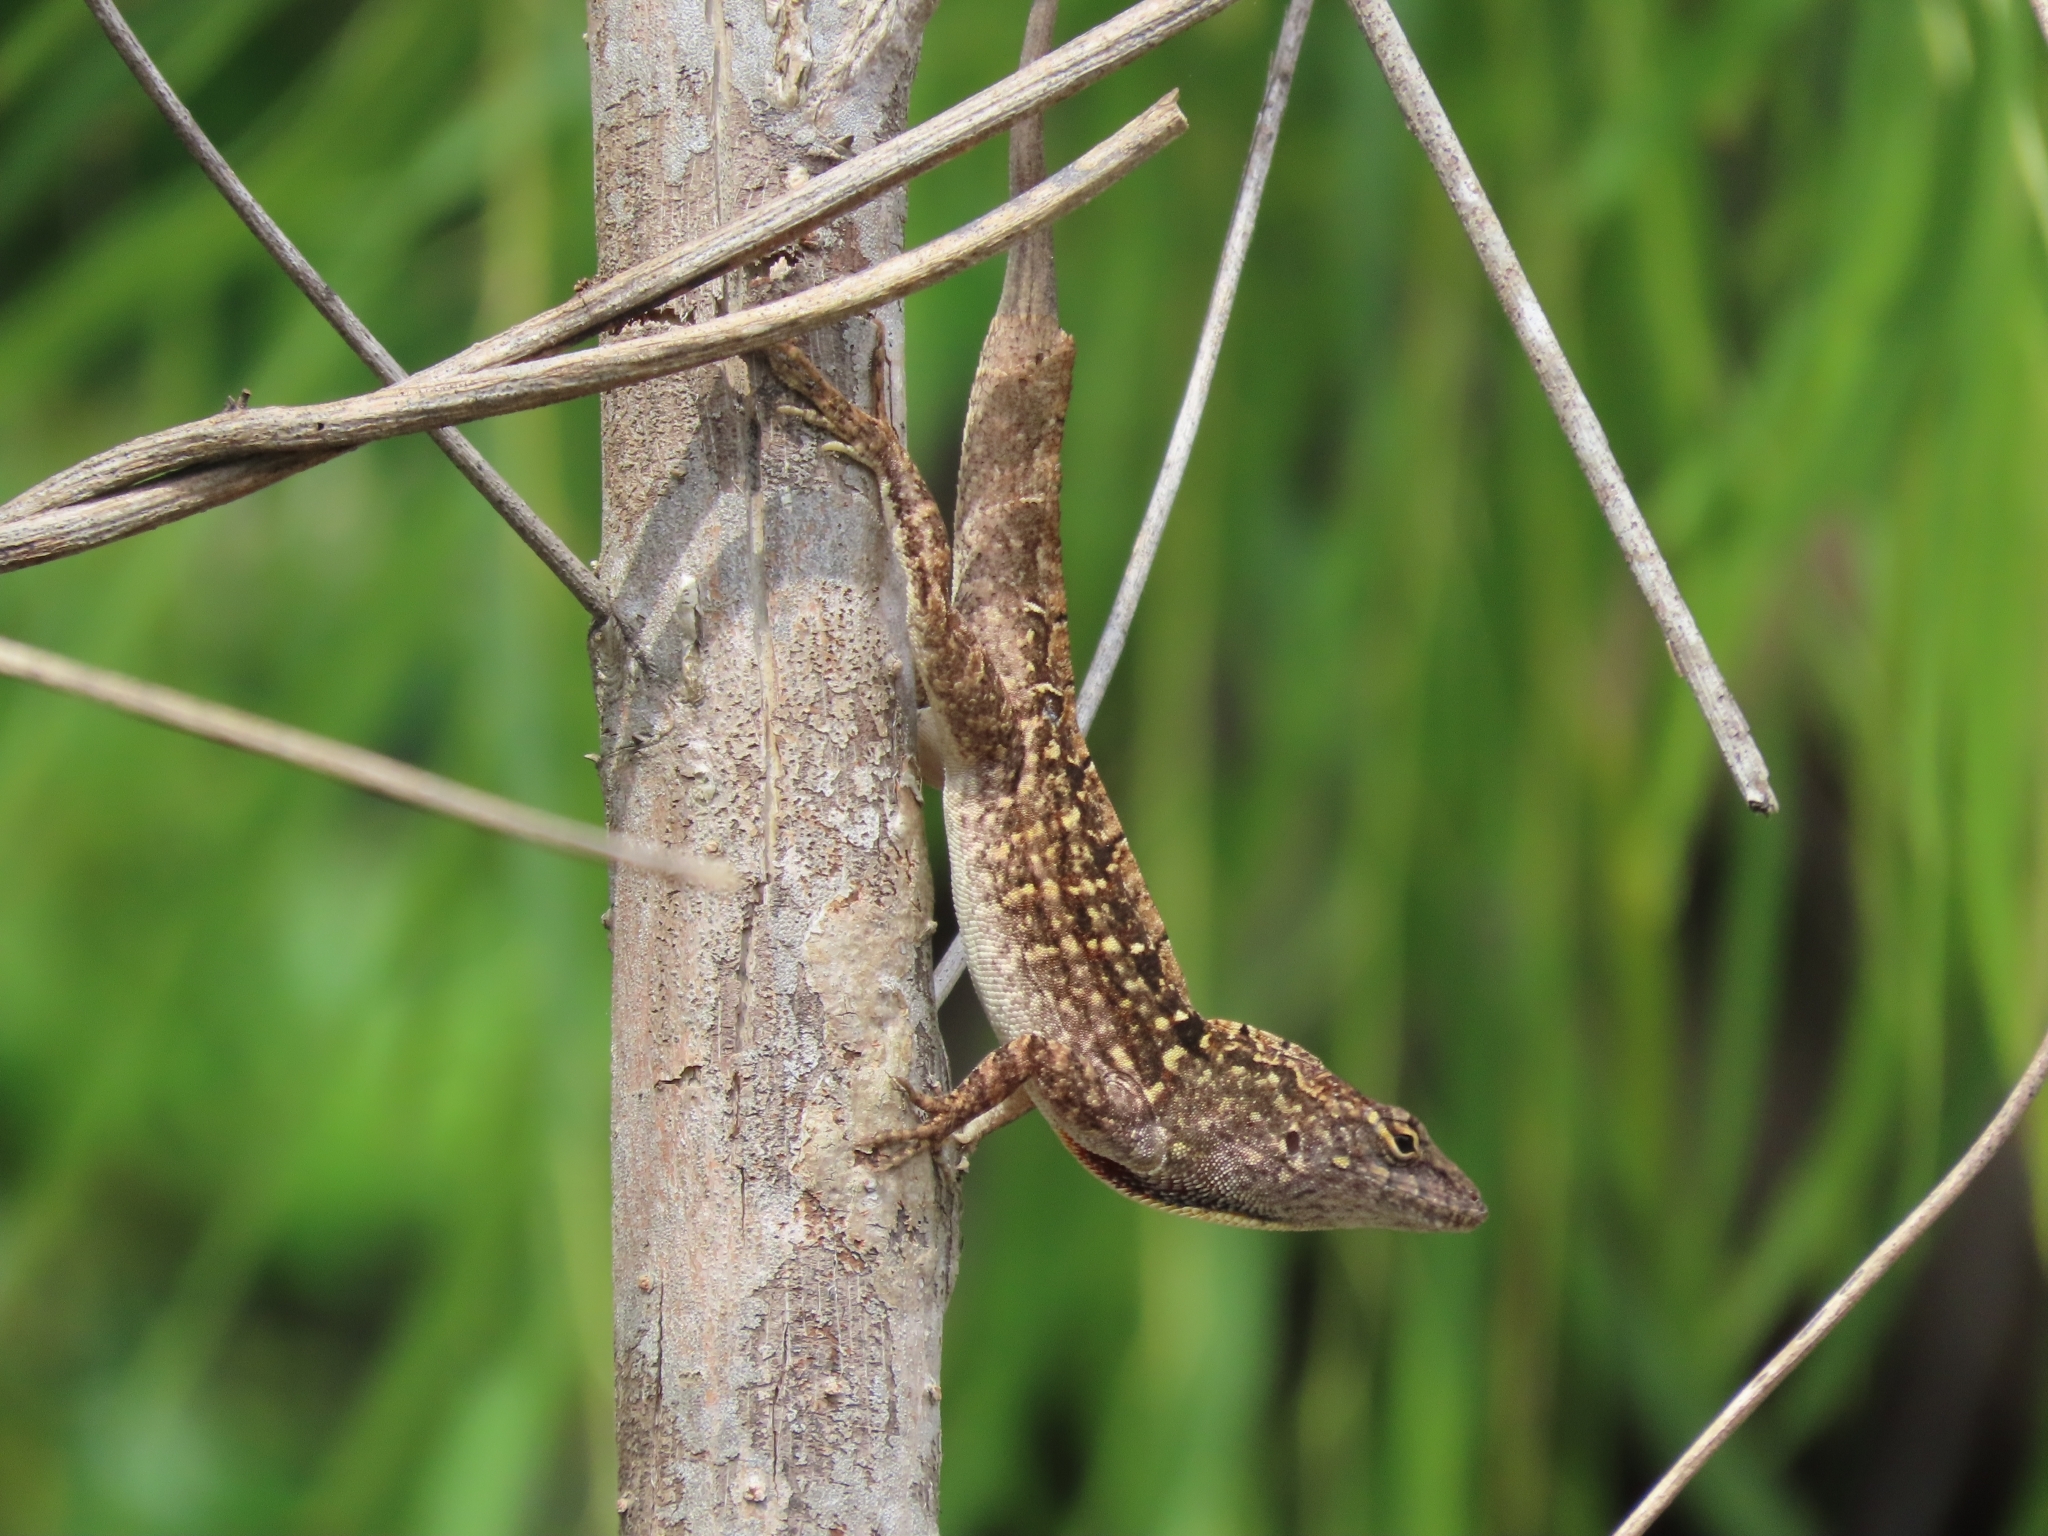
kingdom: Animalia
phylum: Chordata
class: Squamata
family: Dactyloidae
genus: Anolis
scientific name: Anolis sagrei
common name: Brown anole
